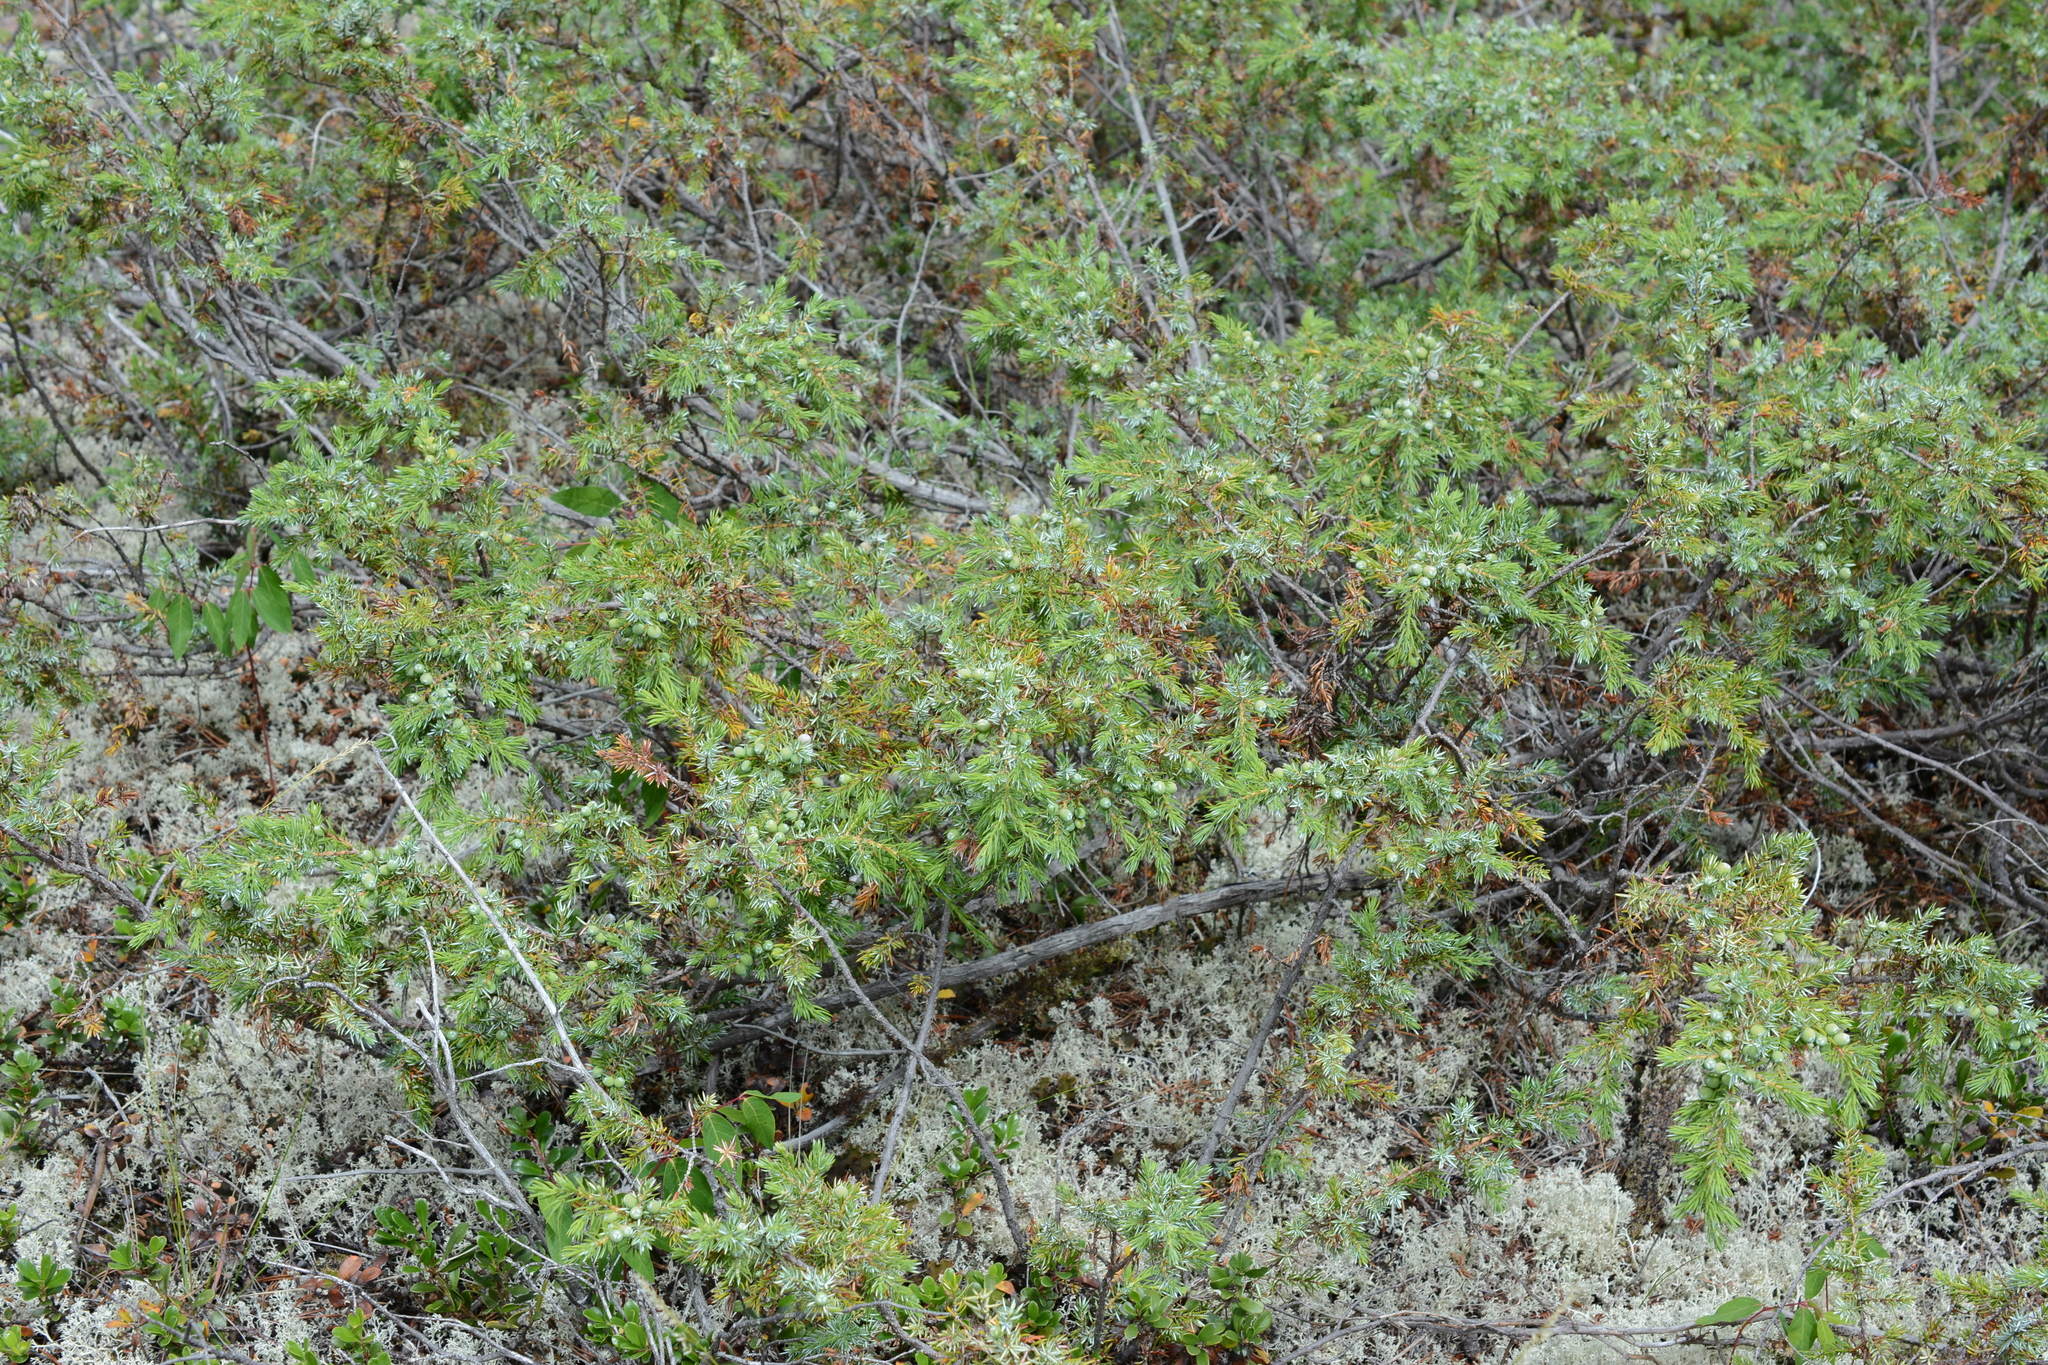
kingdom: Plantae
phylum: Tracheophyta
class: Pinopsida
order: Pinales
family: Cupressaceae
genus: Juniperus
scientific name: Juniperus communis
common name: Common juniper
